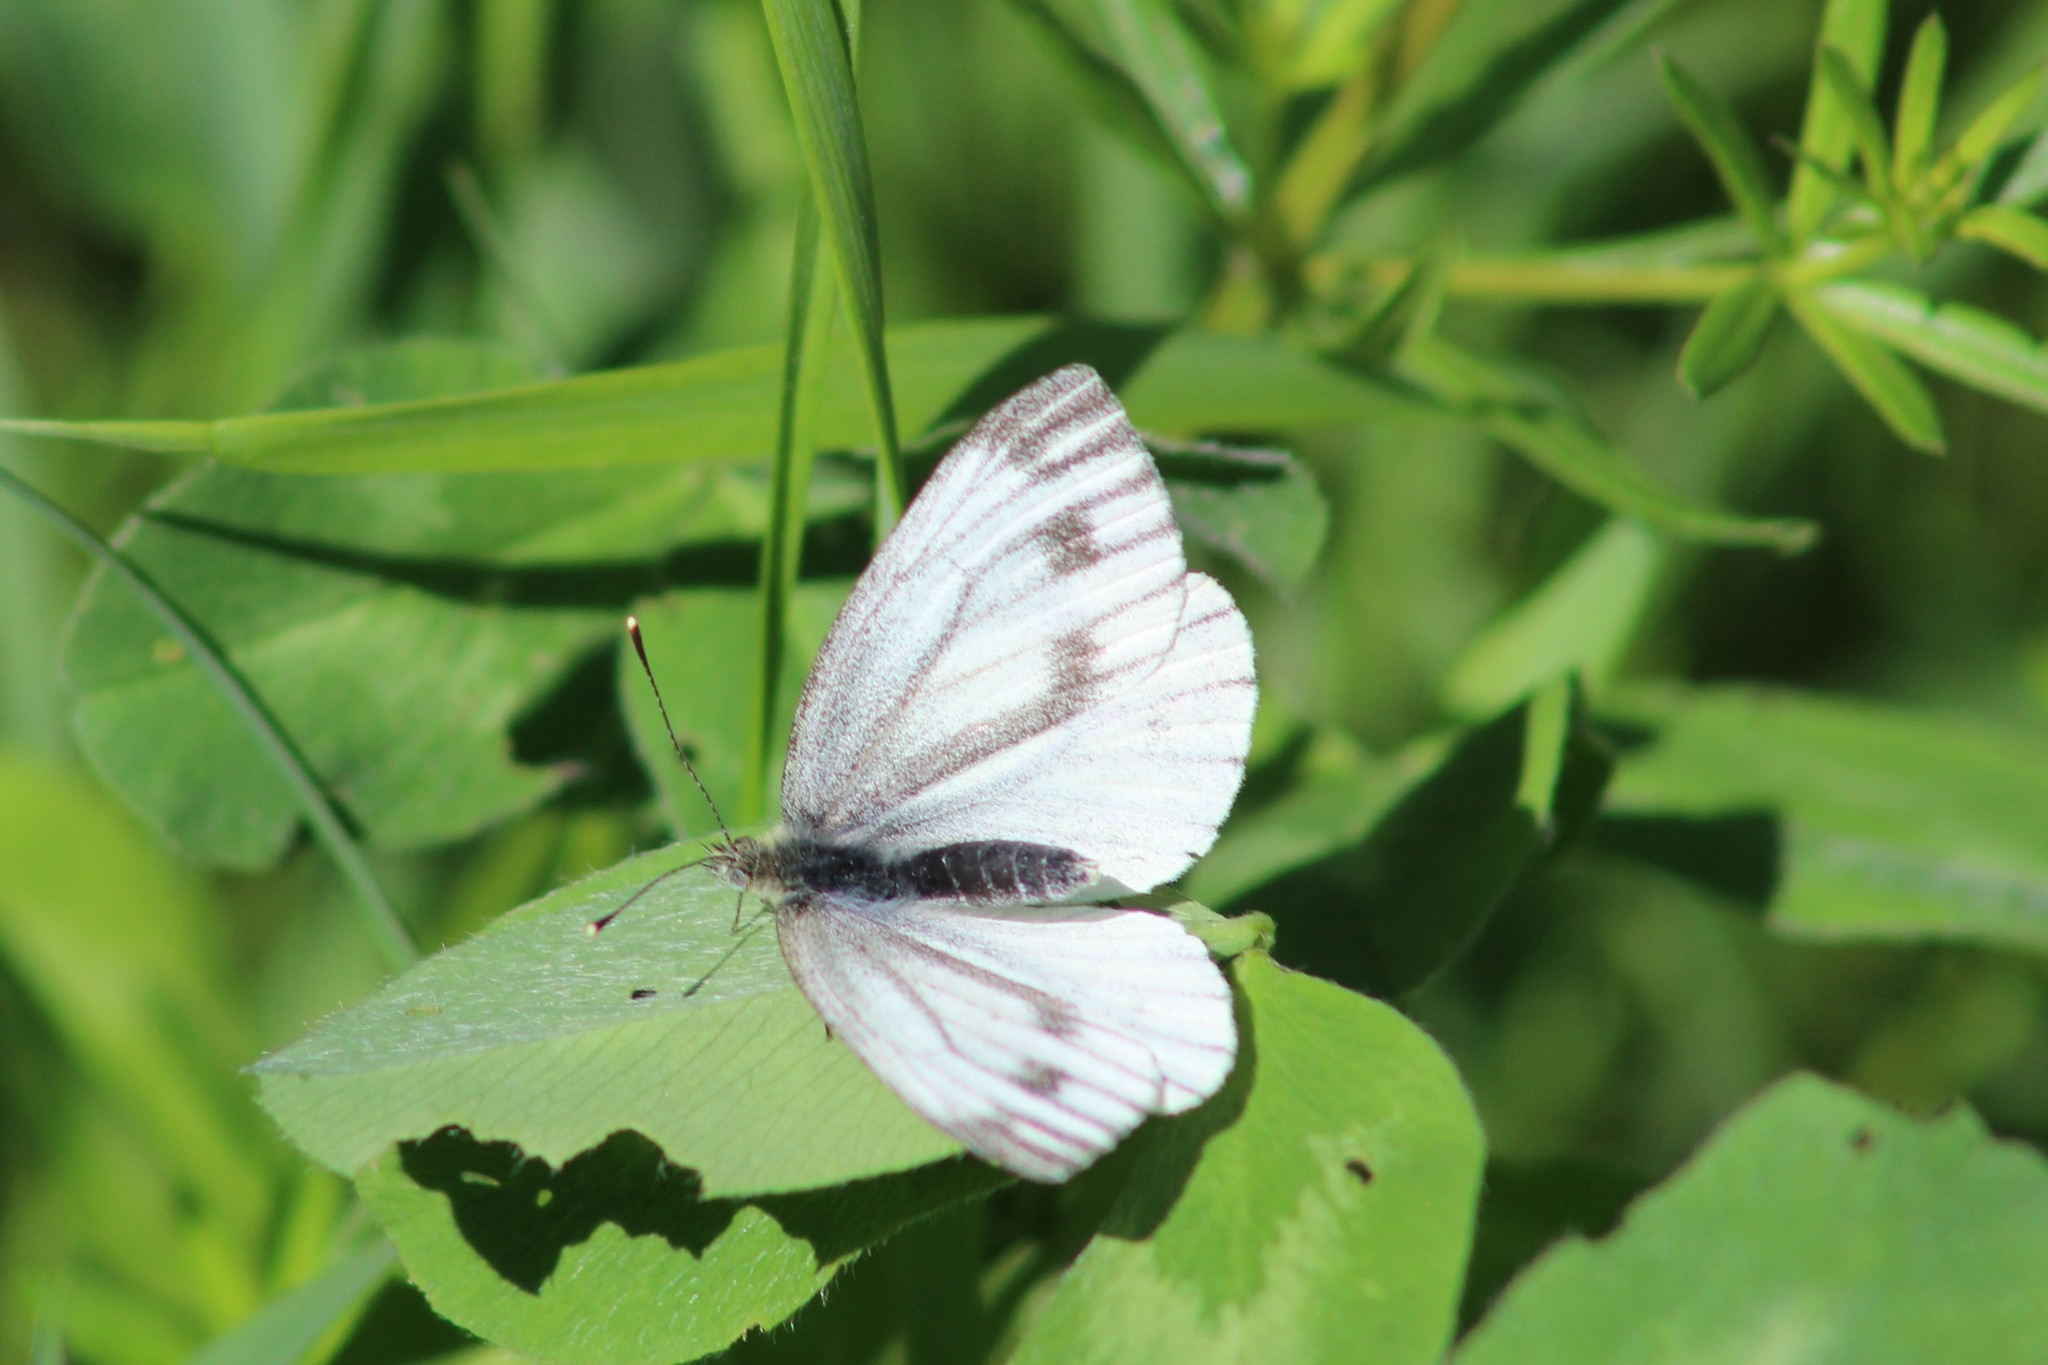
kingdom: Animalia
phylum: Arthropoda
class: Insecta
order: Lepidoptera
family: Pieridae
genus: Pieris
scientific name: Pieris napi
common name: Green-veined white
